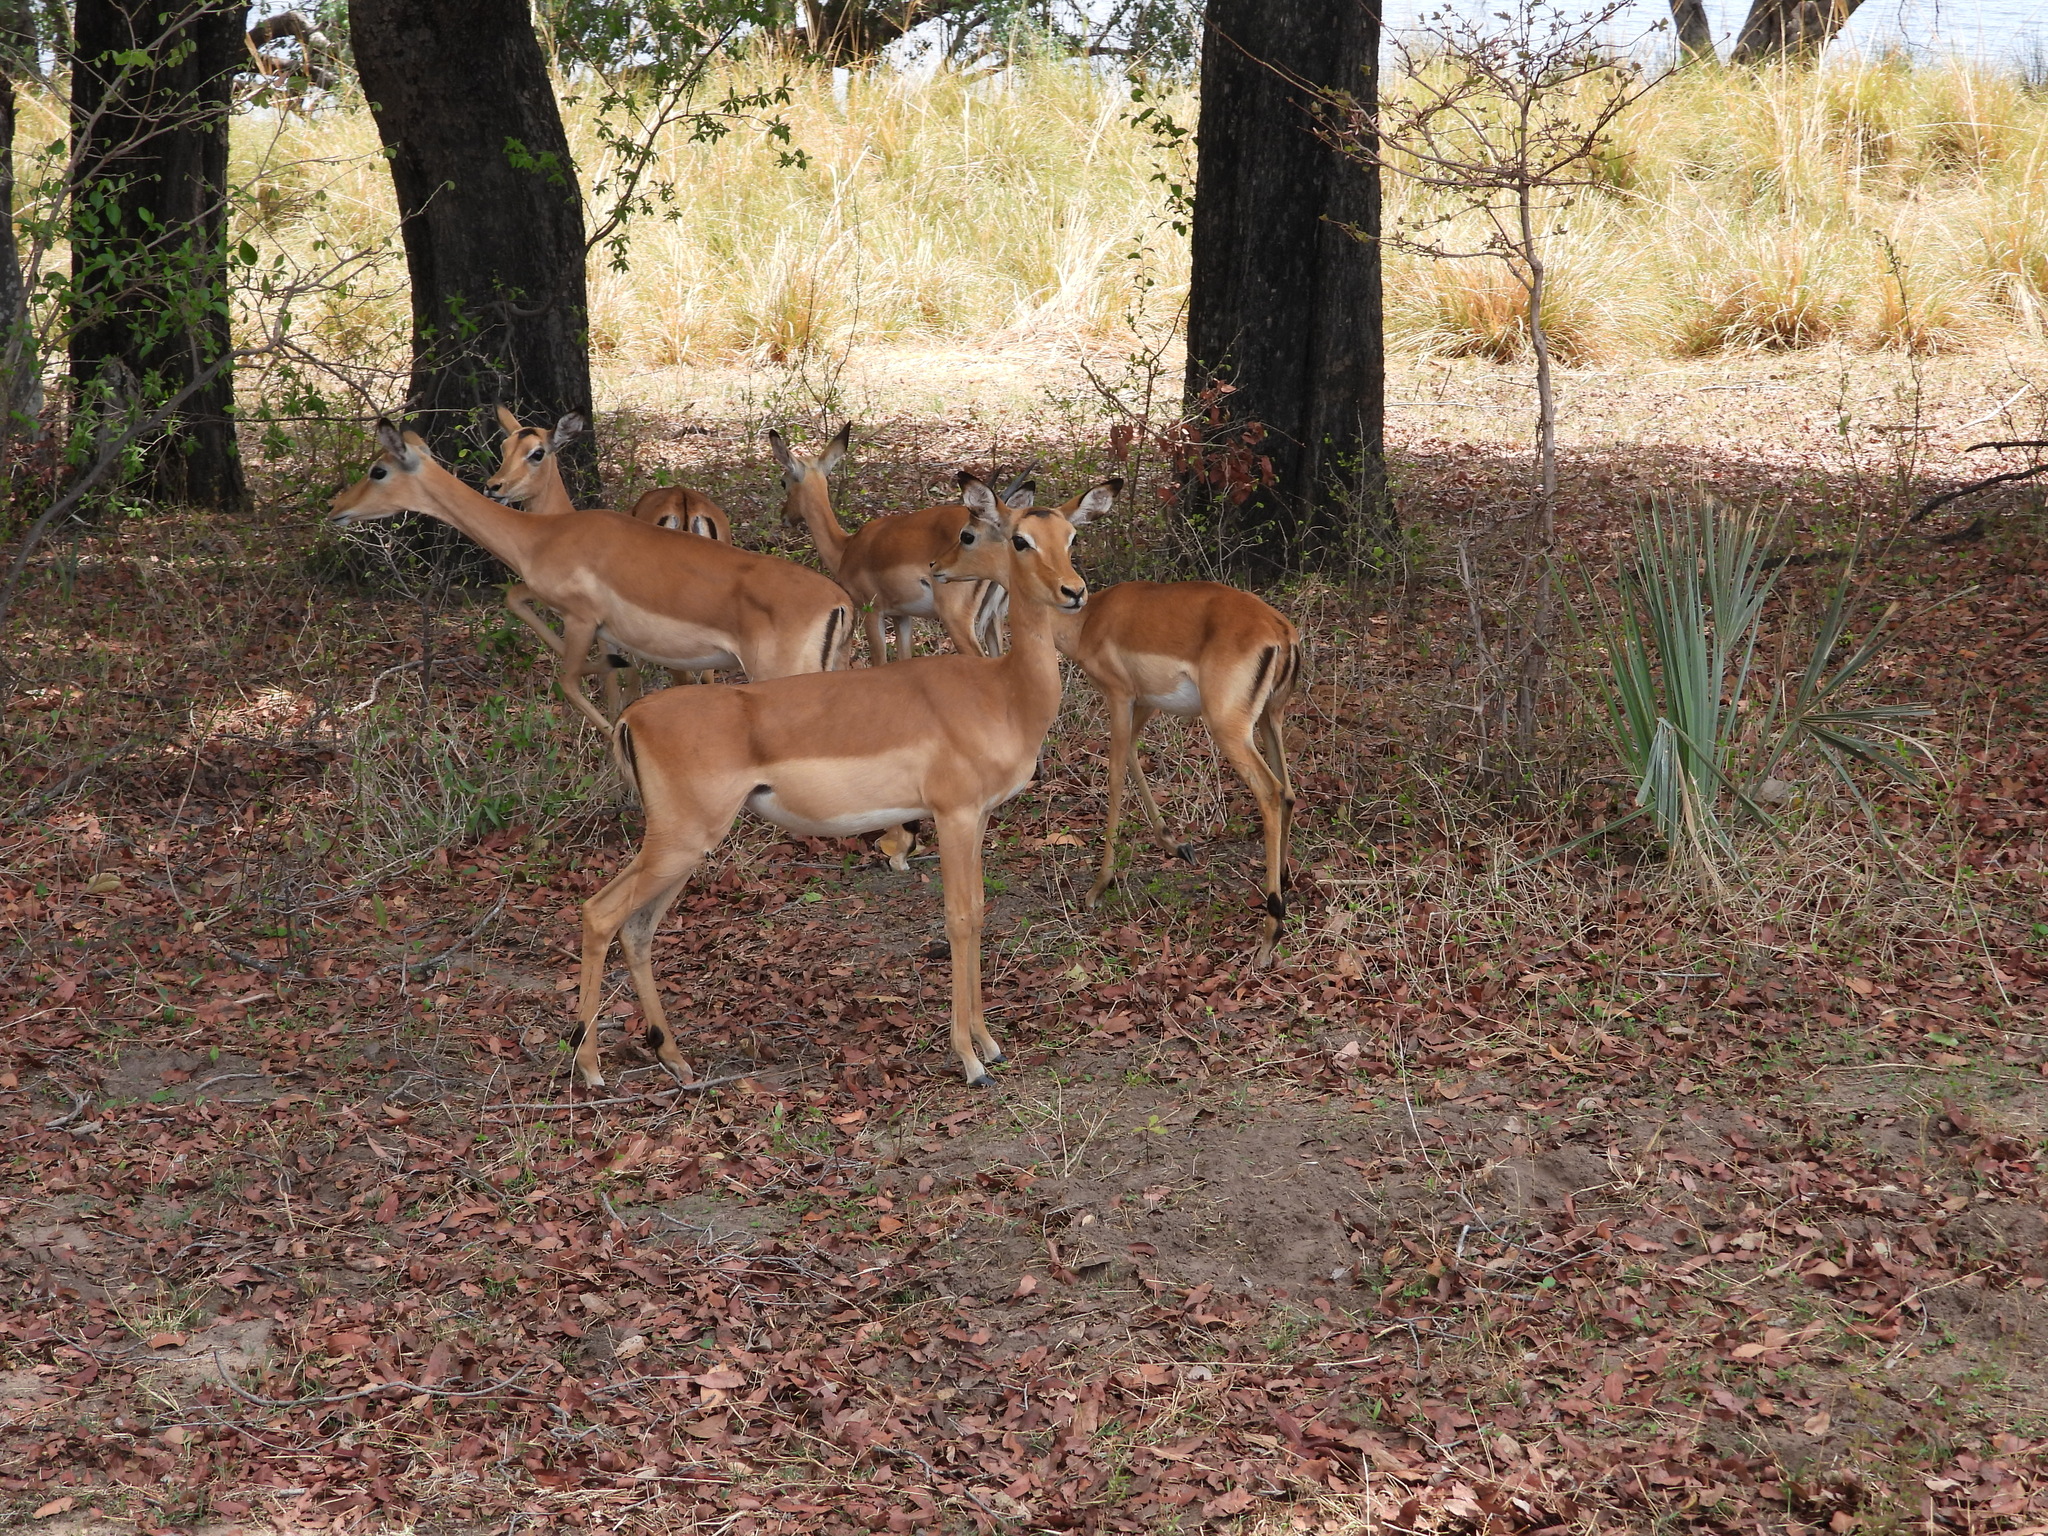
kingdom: Animalia
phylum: Chordata
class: Mammalia
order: Artiodactyla
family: Bovidae
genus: Aepyceros
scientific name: Aepyceros melampus
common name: Impala
